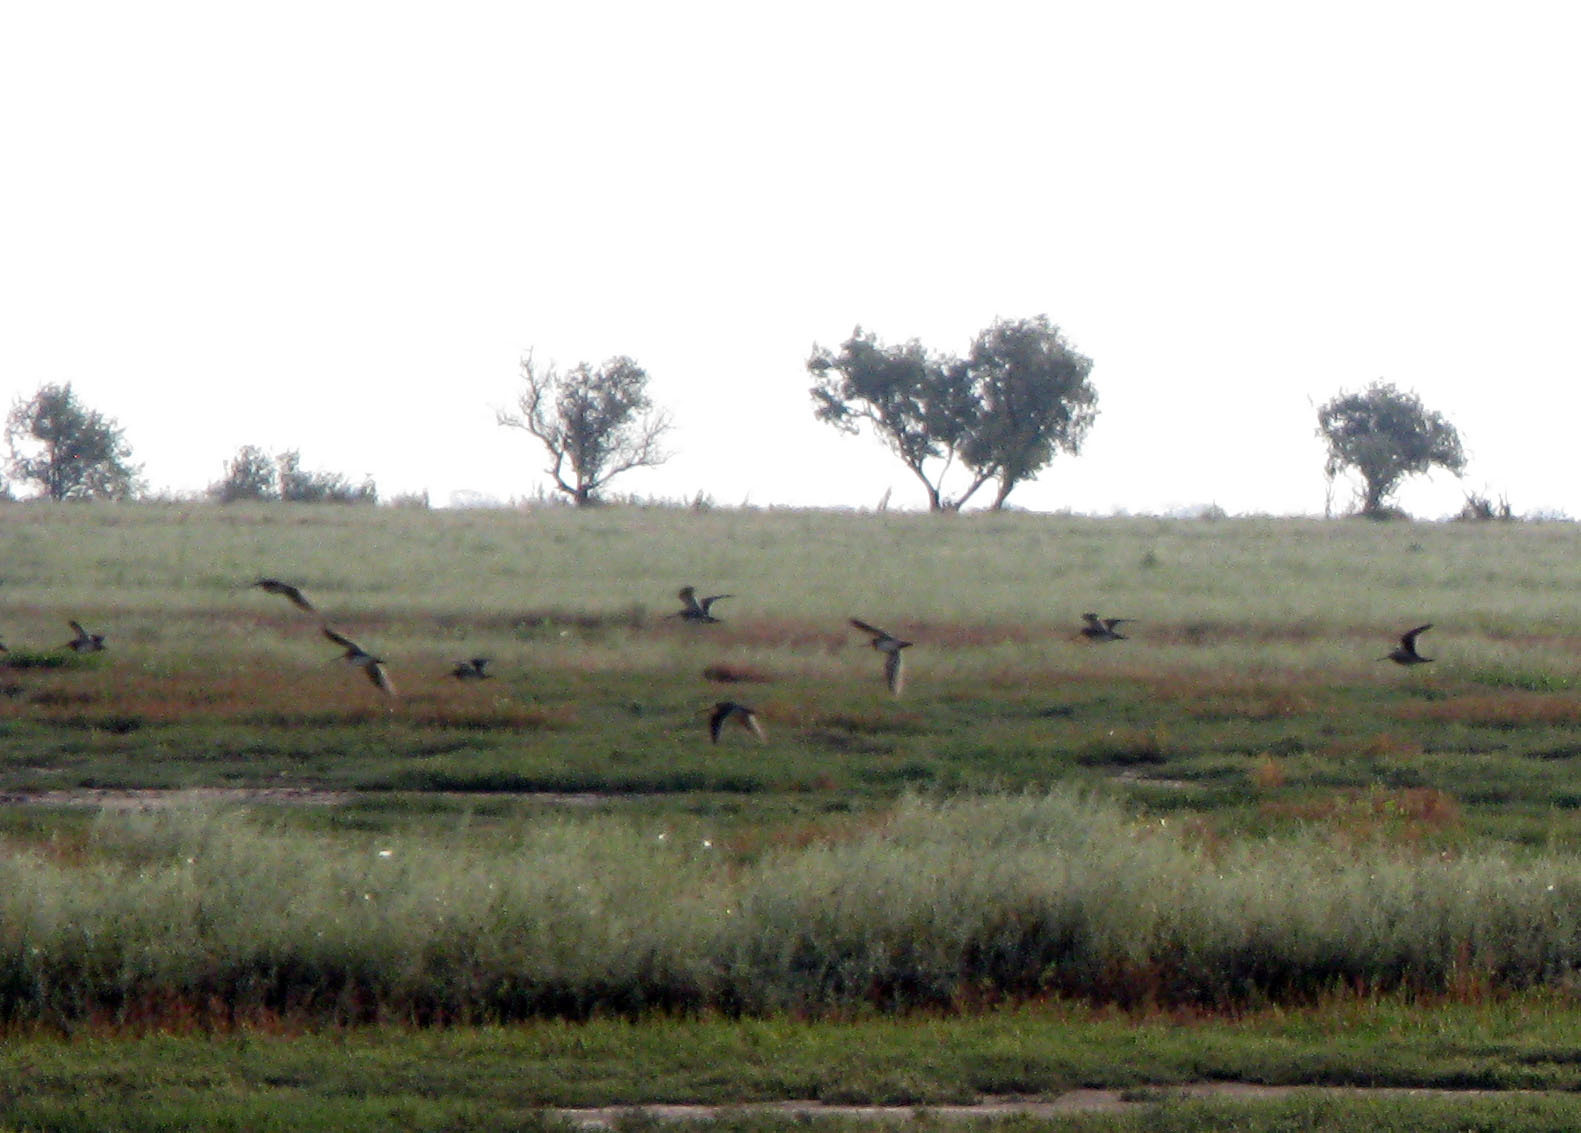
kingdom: Animalia
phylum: Chordata
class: Aves
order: Charadriiformes
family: Scolopacidae
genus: Gallinago
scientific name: Gallinago gallinago
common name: Common snipe
